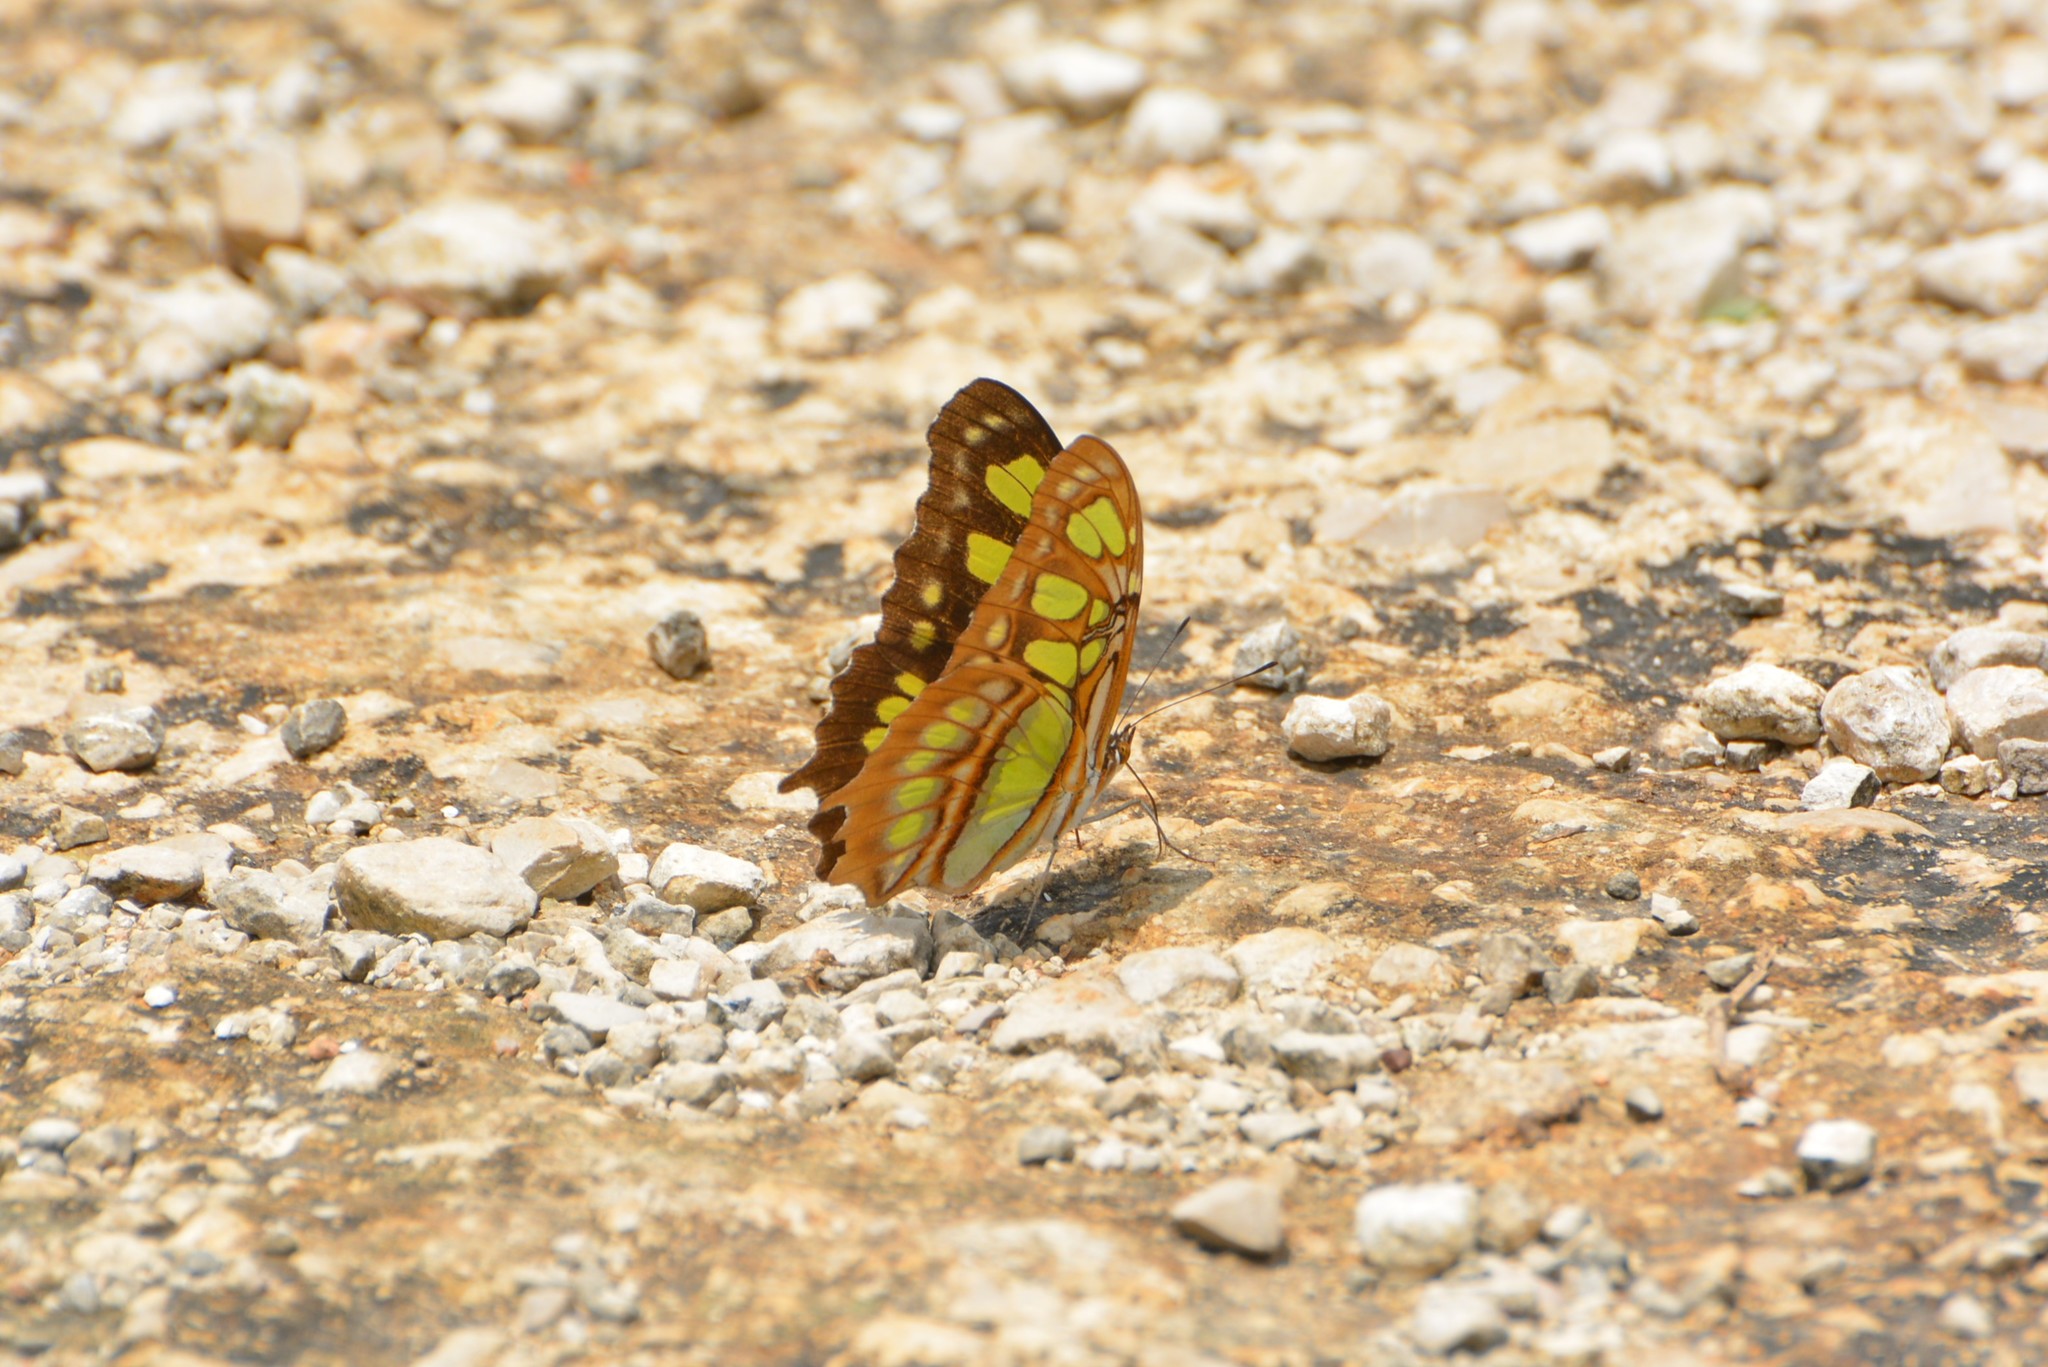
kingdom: Animalia
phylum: Arthropoda
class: Insecta
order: Lepidoptera
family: Nymphalidae
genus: Siproeta
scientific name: Siproeta stelenes
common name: Malachite
